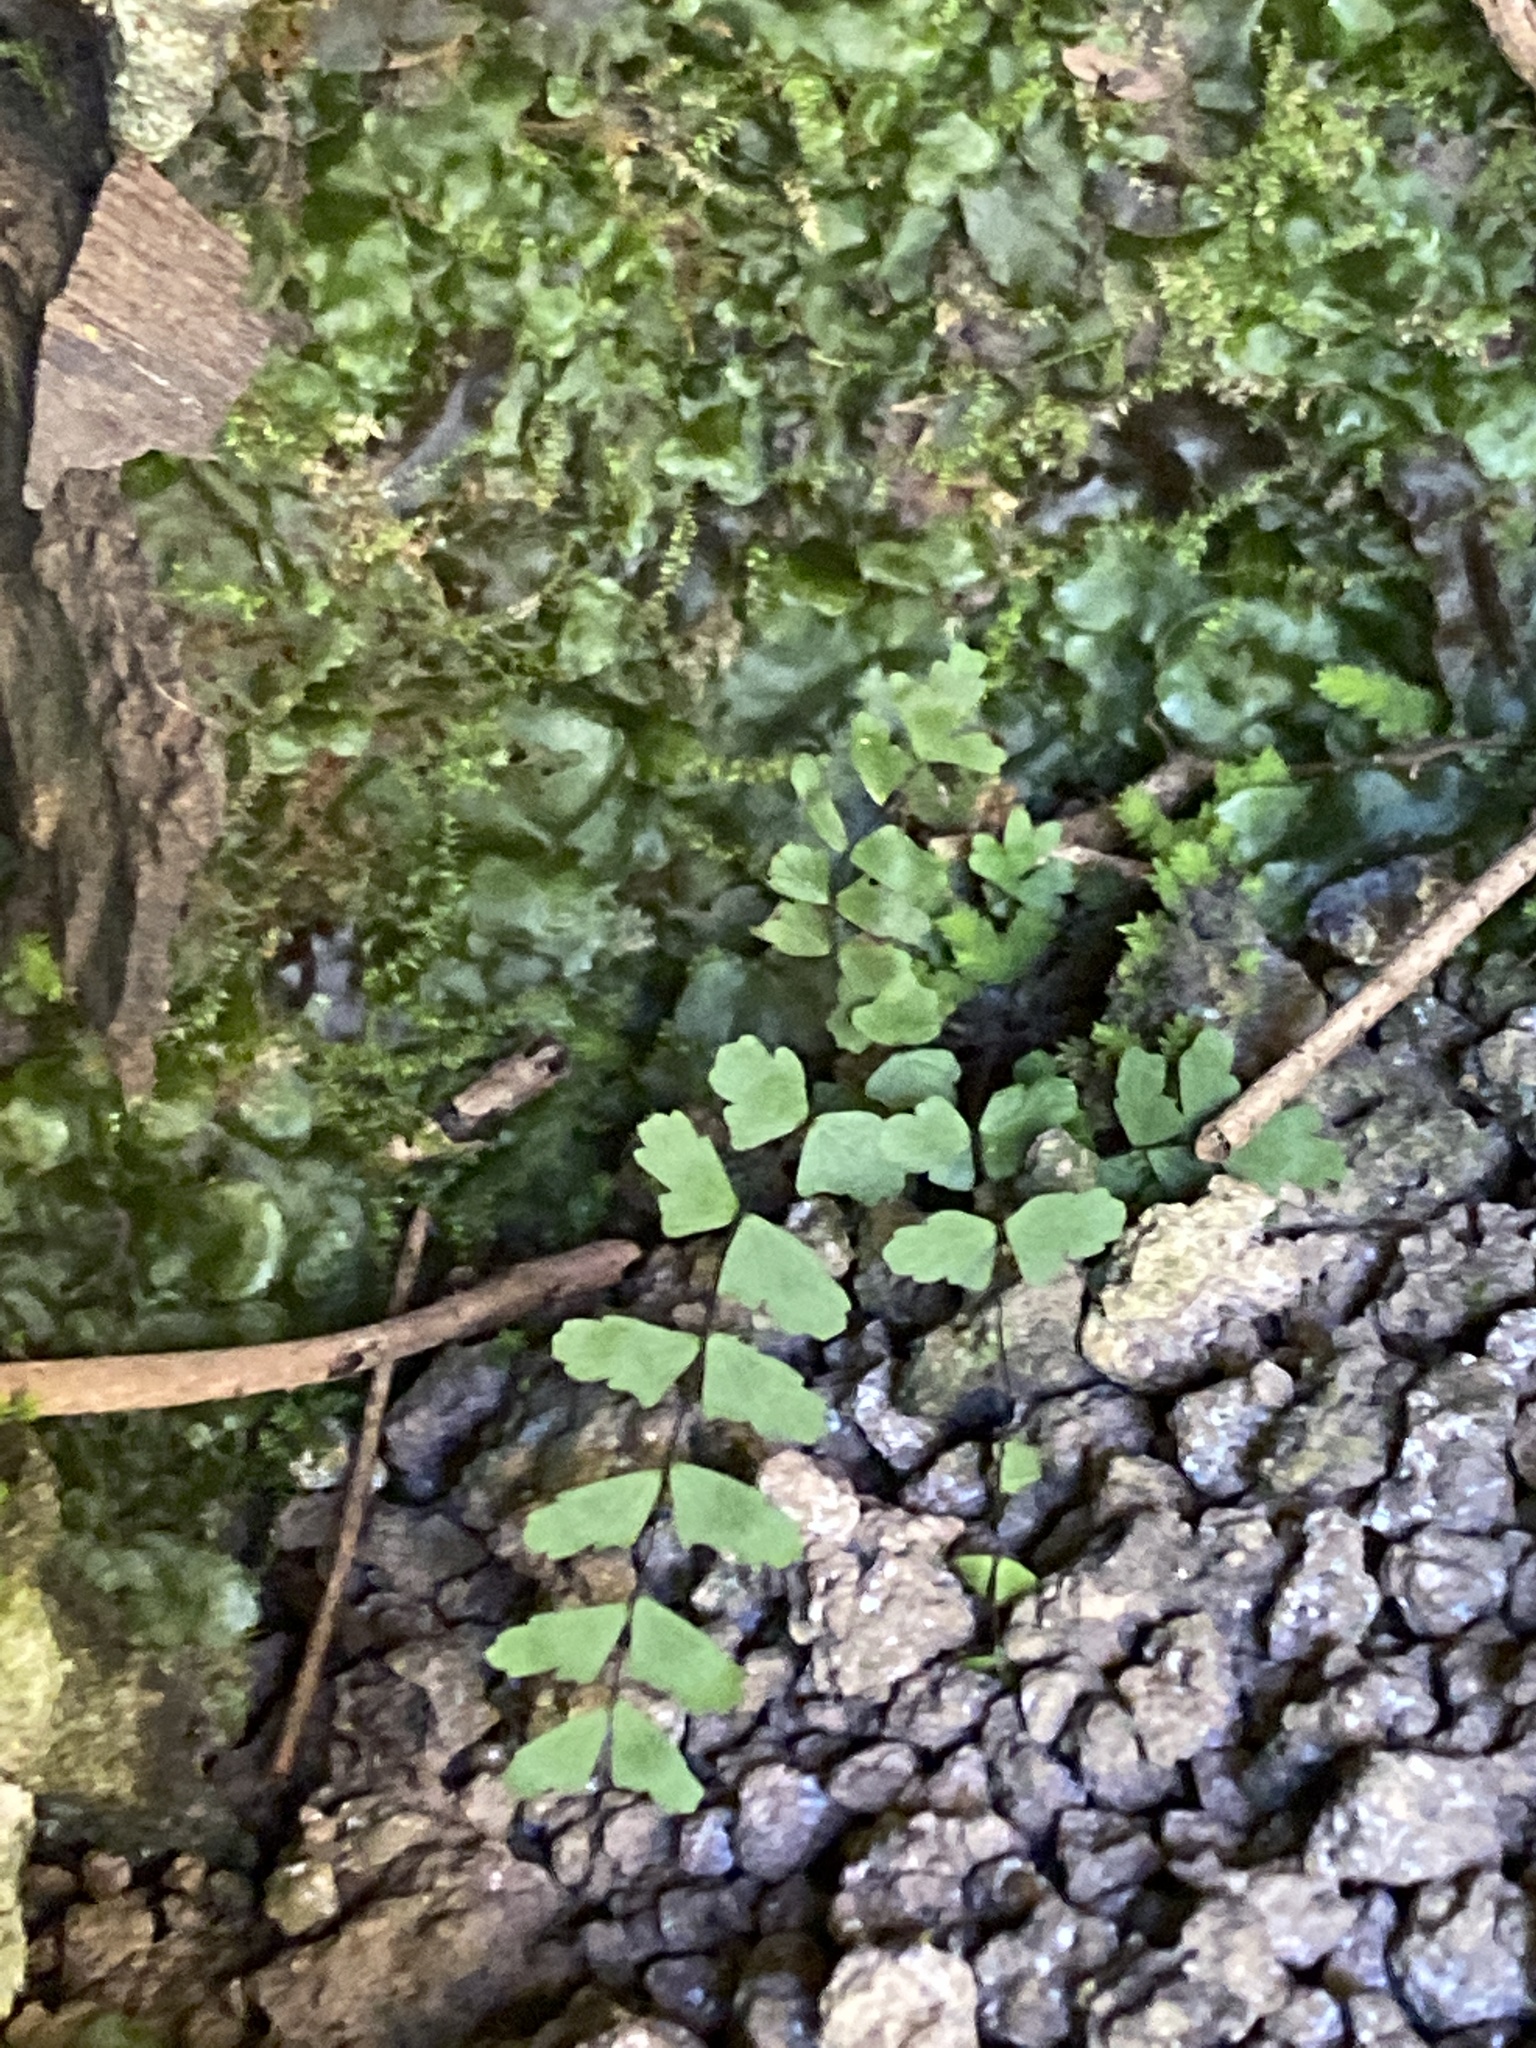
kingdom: Plantae
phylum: Tracheophyta
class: Polypodiopsida
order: Polypodiales
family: Aspleniaceae
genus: Asplenium
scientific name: Asplenium resiliens
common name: Blackstem spleenwort
